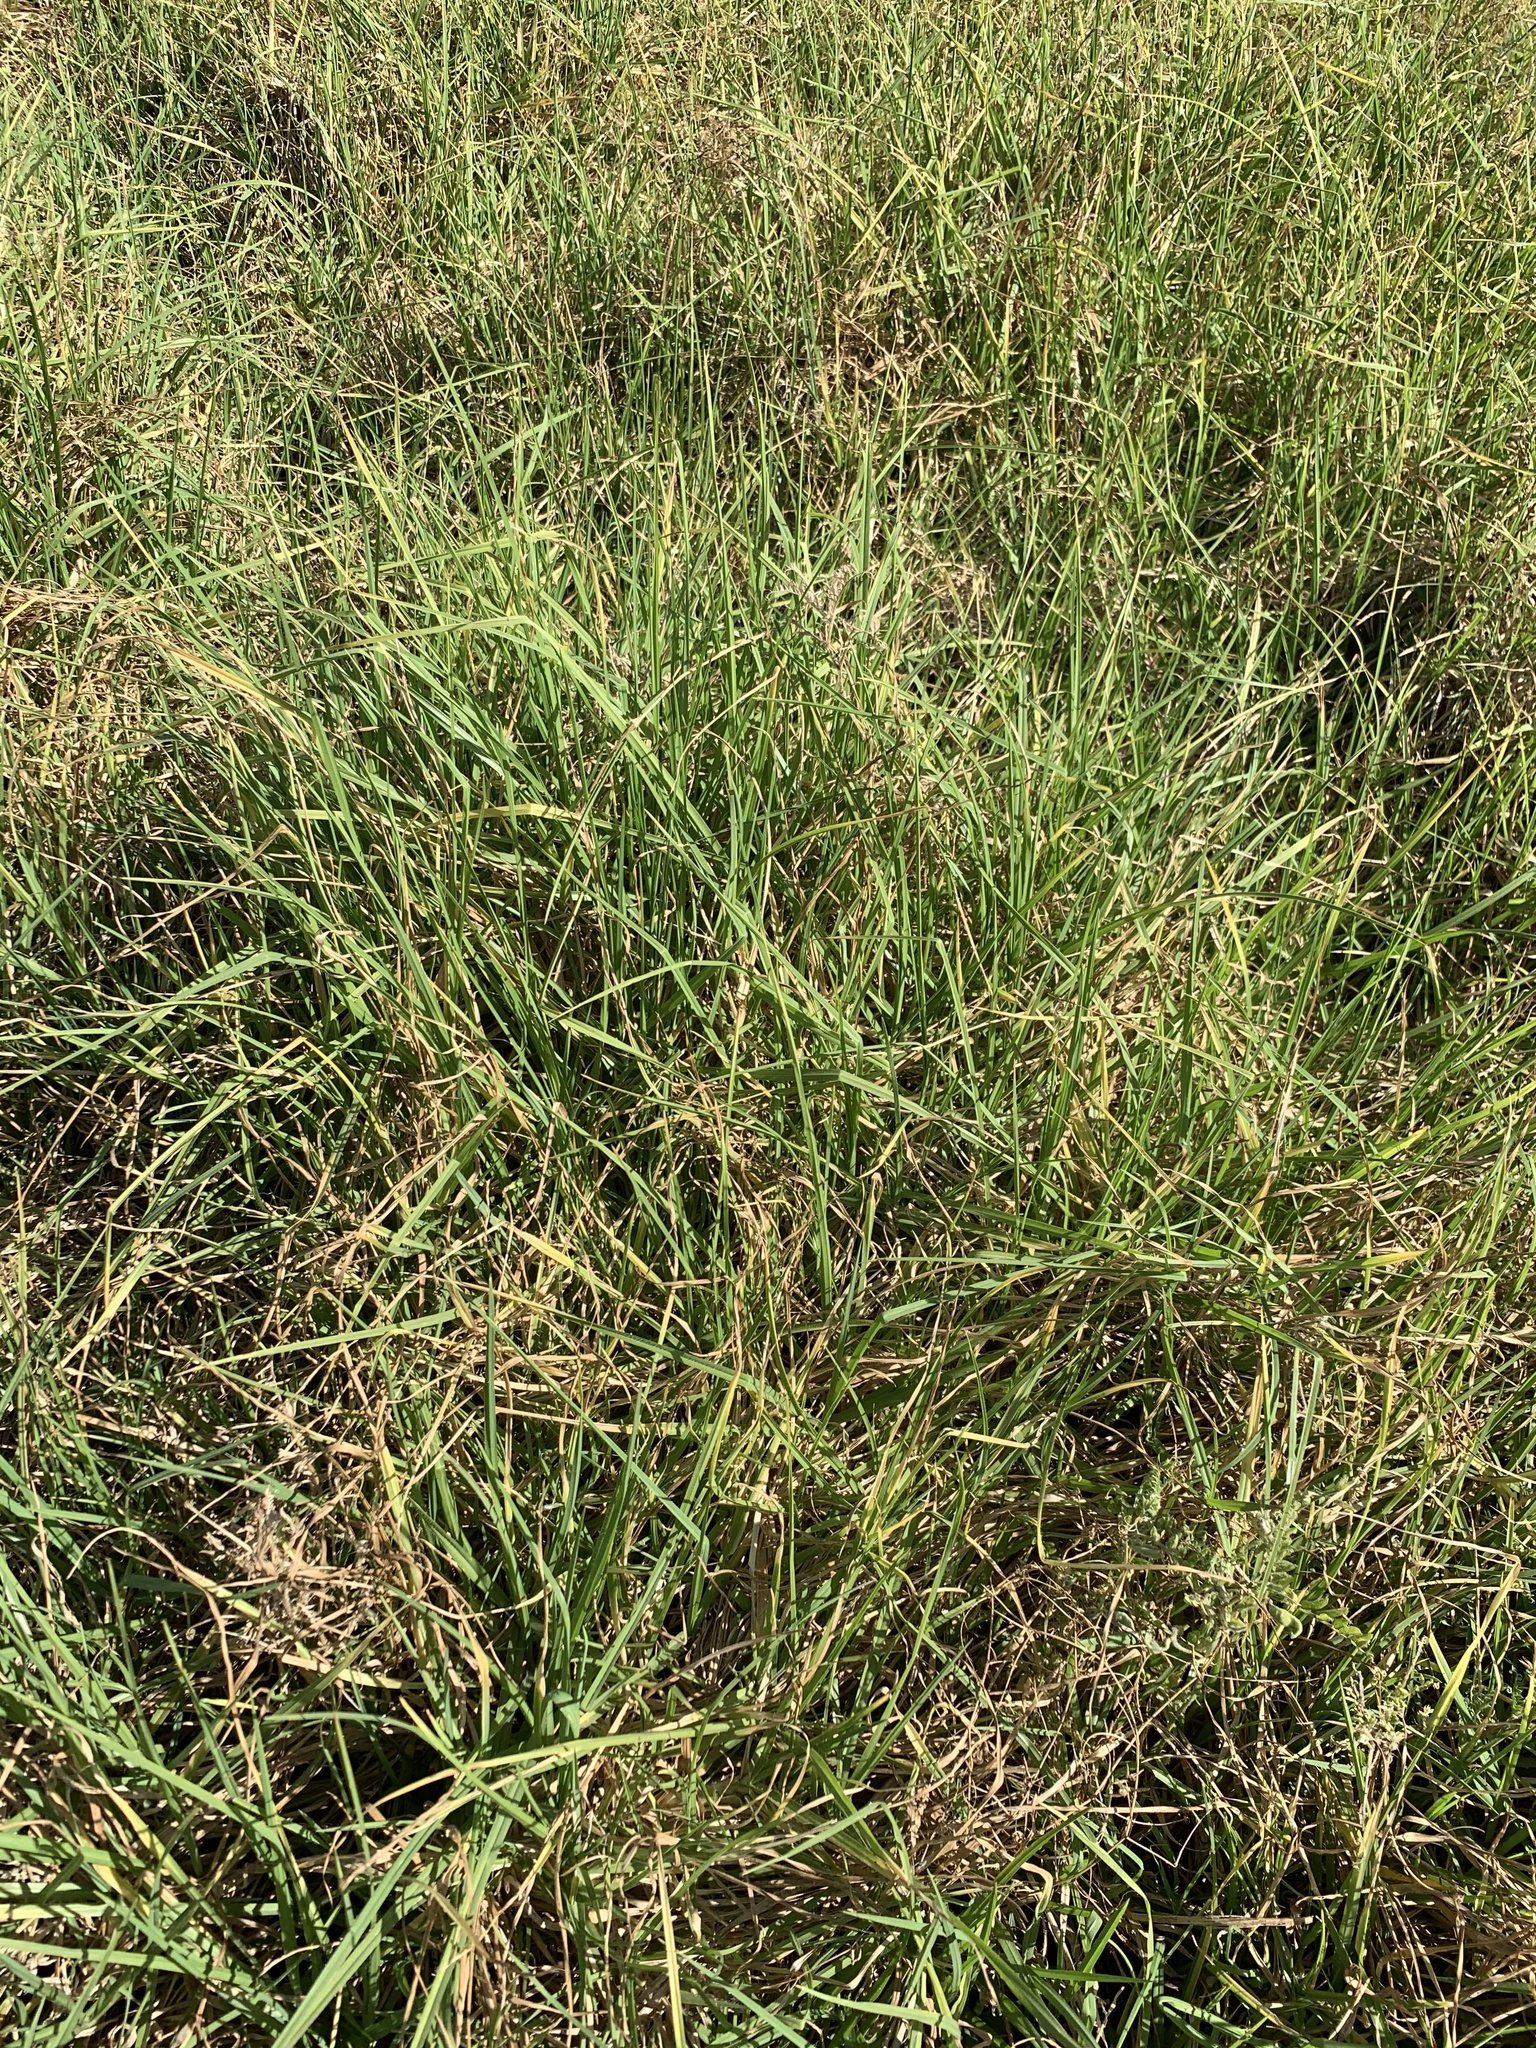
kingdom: Plantae
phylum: Tracheophyta
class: Liliopsida
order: Poales
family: Poaceae
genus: Cenchrus
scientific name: Cenchrus clandestinus
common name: Kikuyugrass
